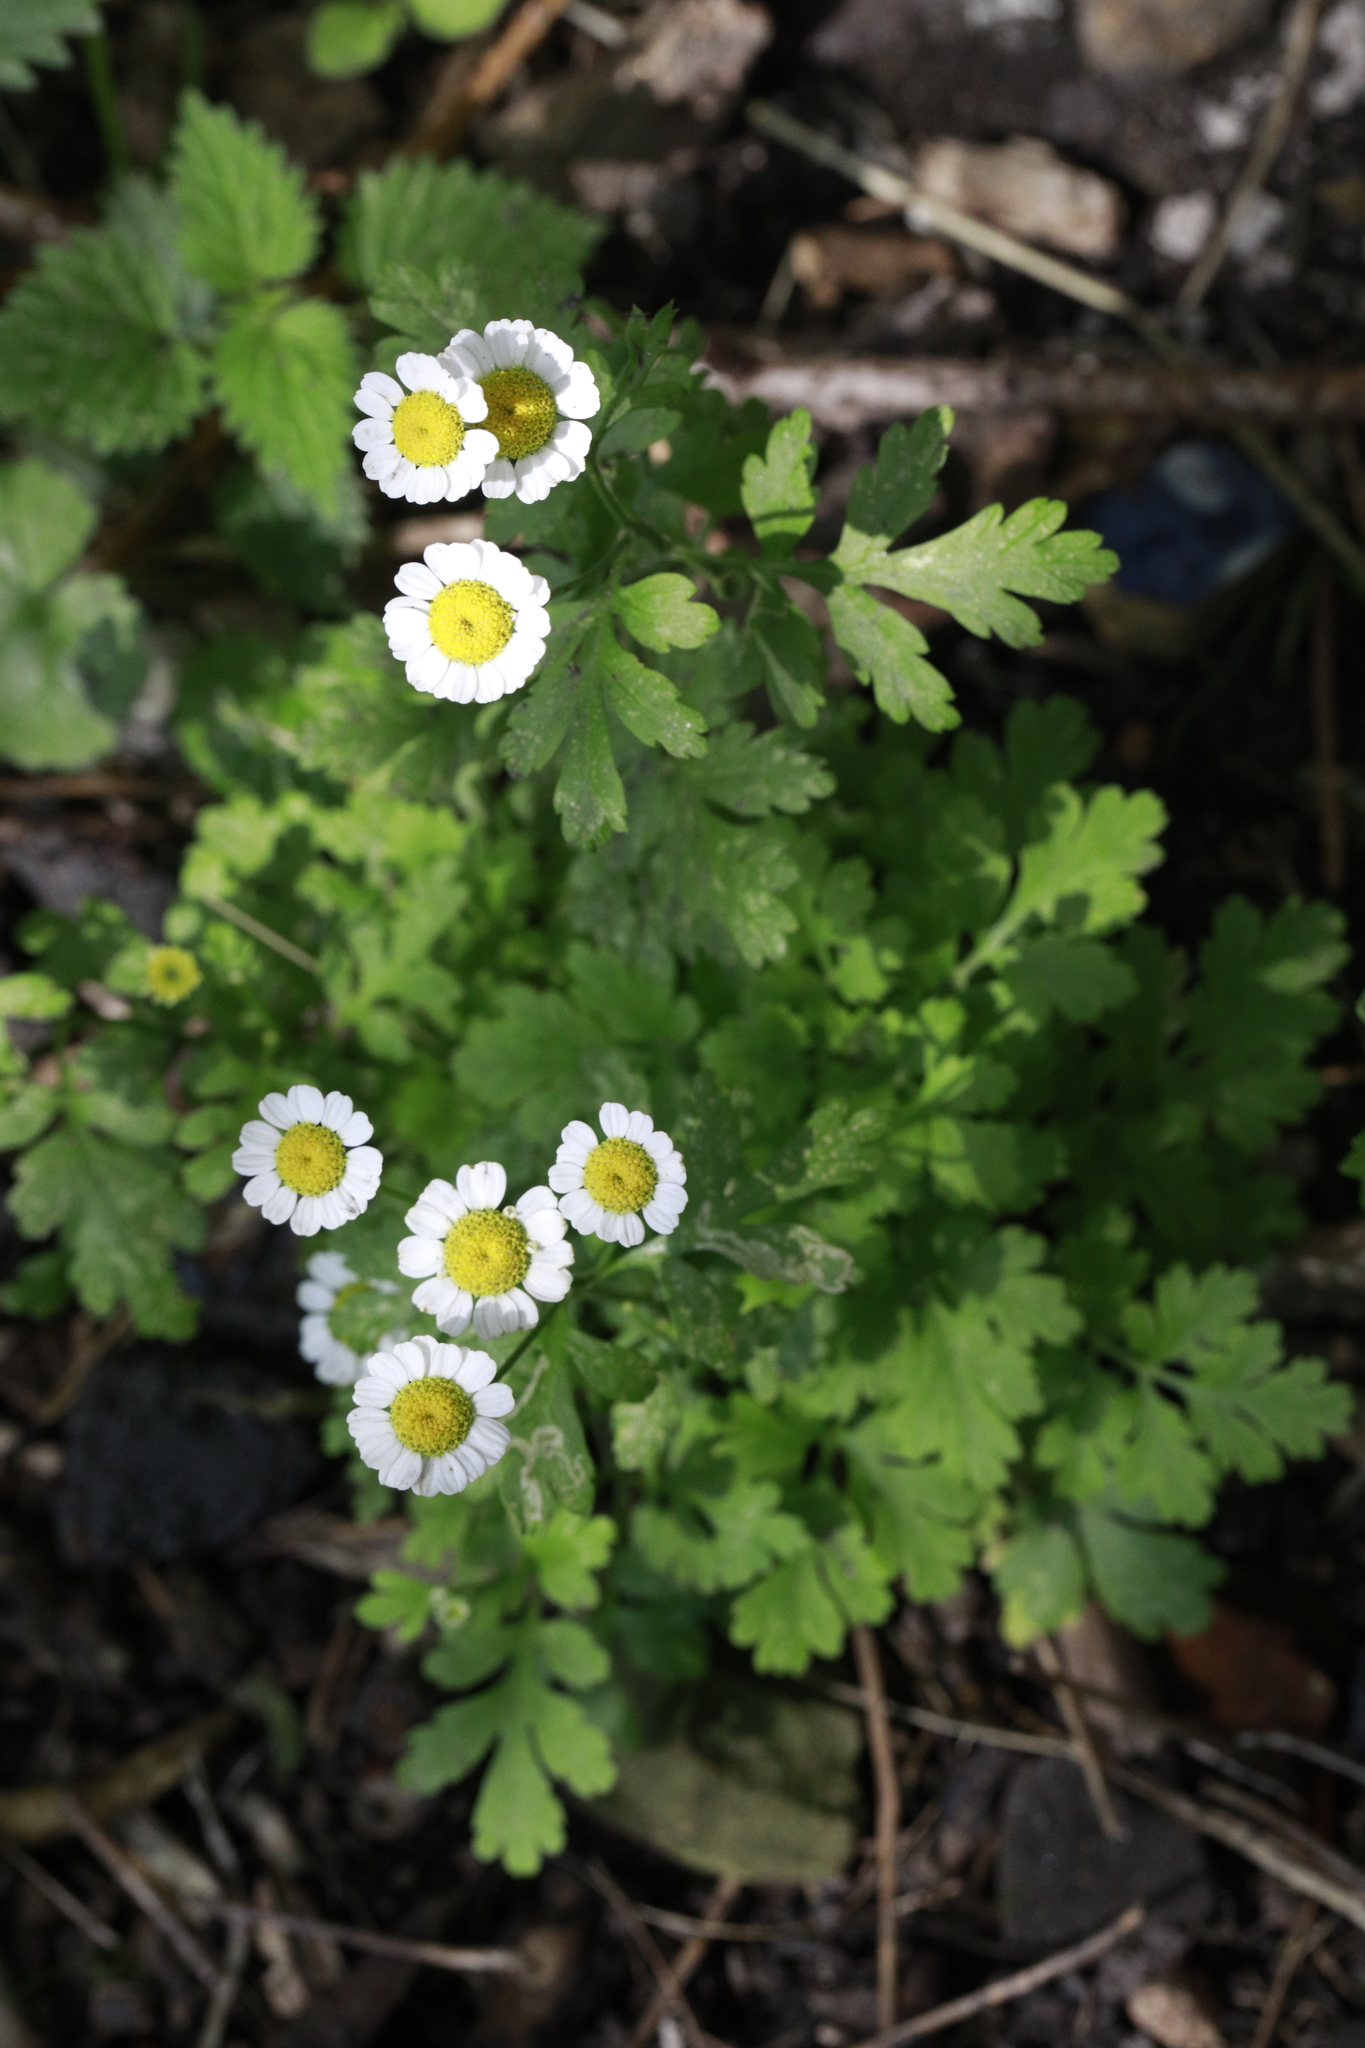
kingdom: Plantae
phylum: Tracheophyta
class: Magnoliopsida
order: Asterales
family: Asteraceae
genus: Tanacetum
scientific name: Tanacetum parthenium
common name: Feverfew
